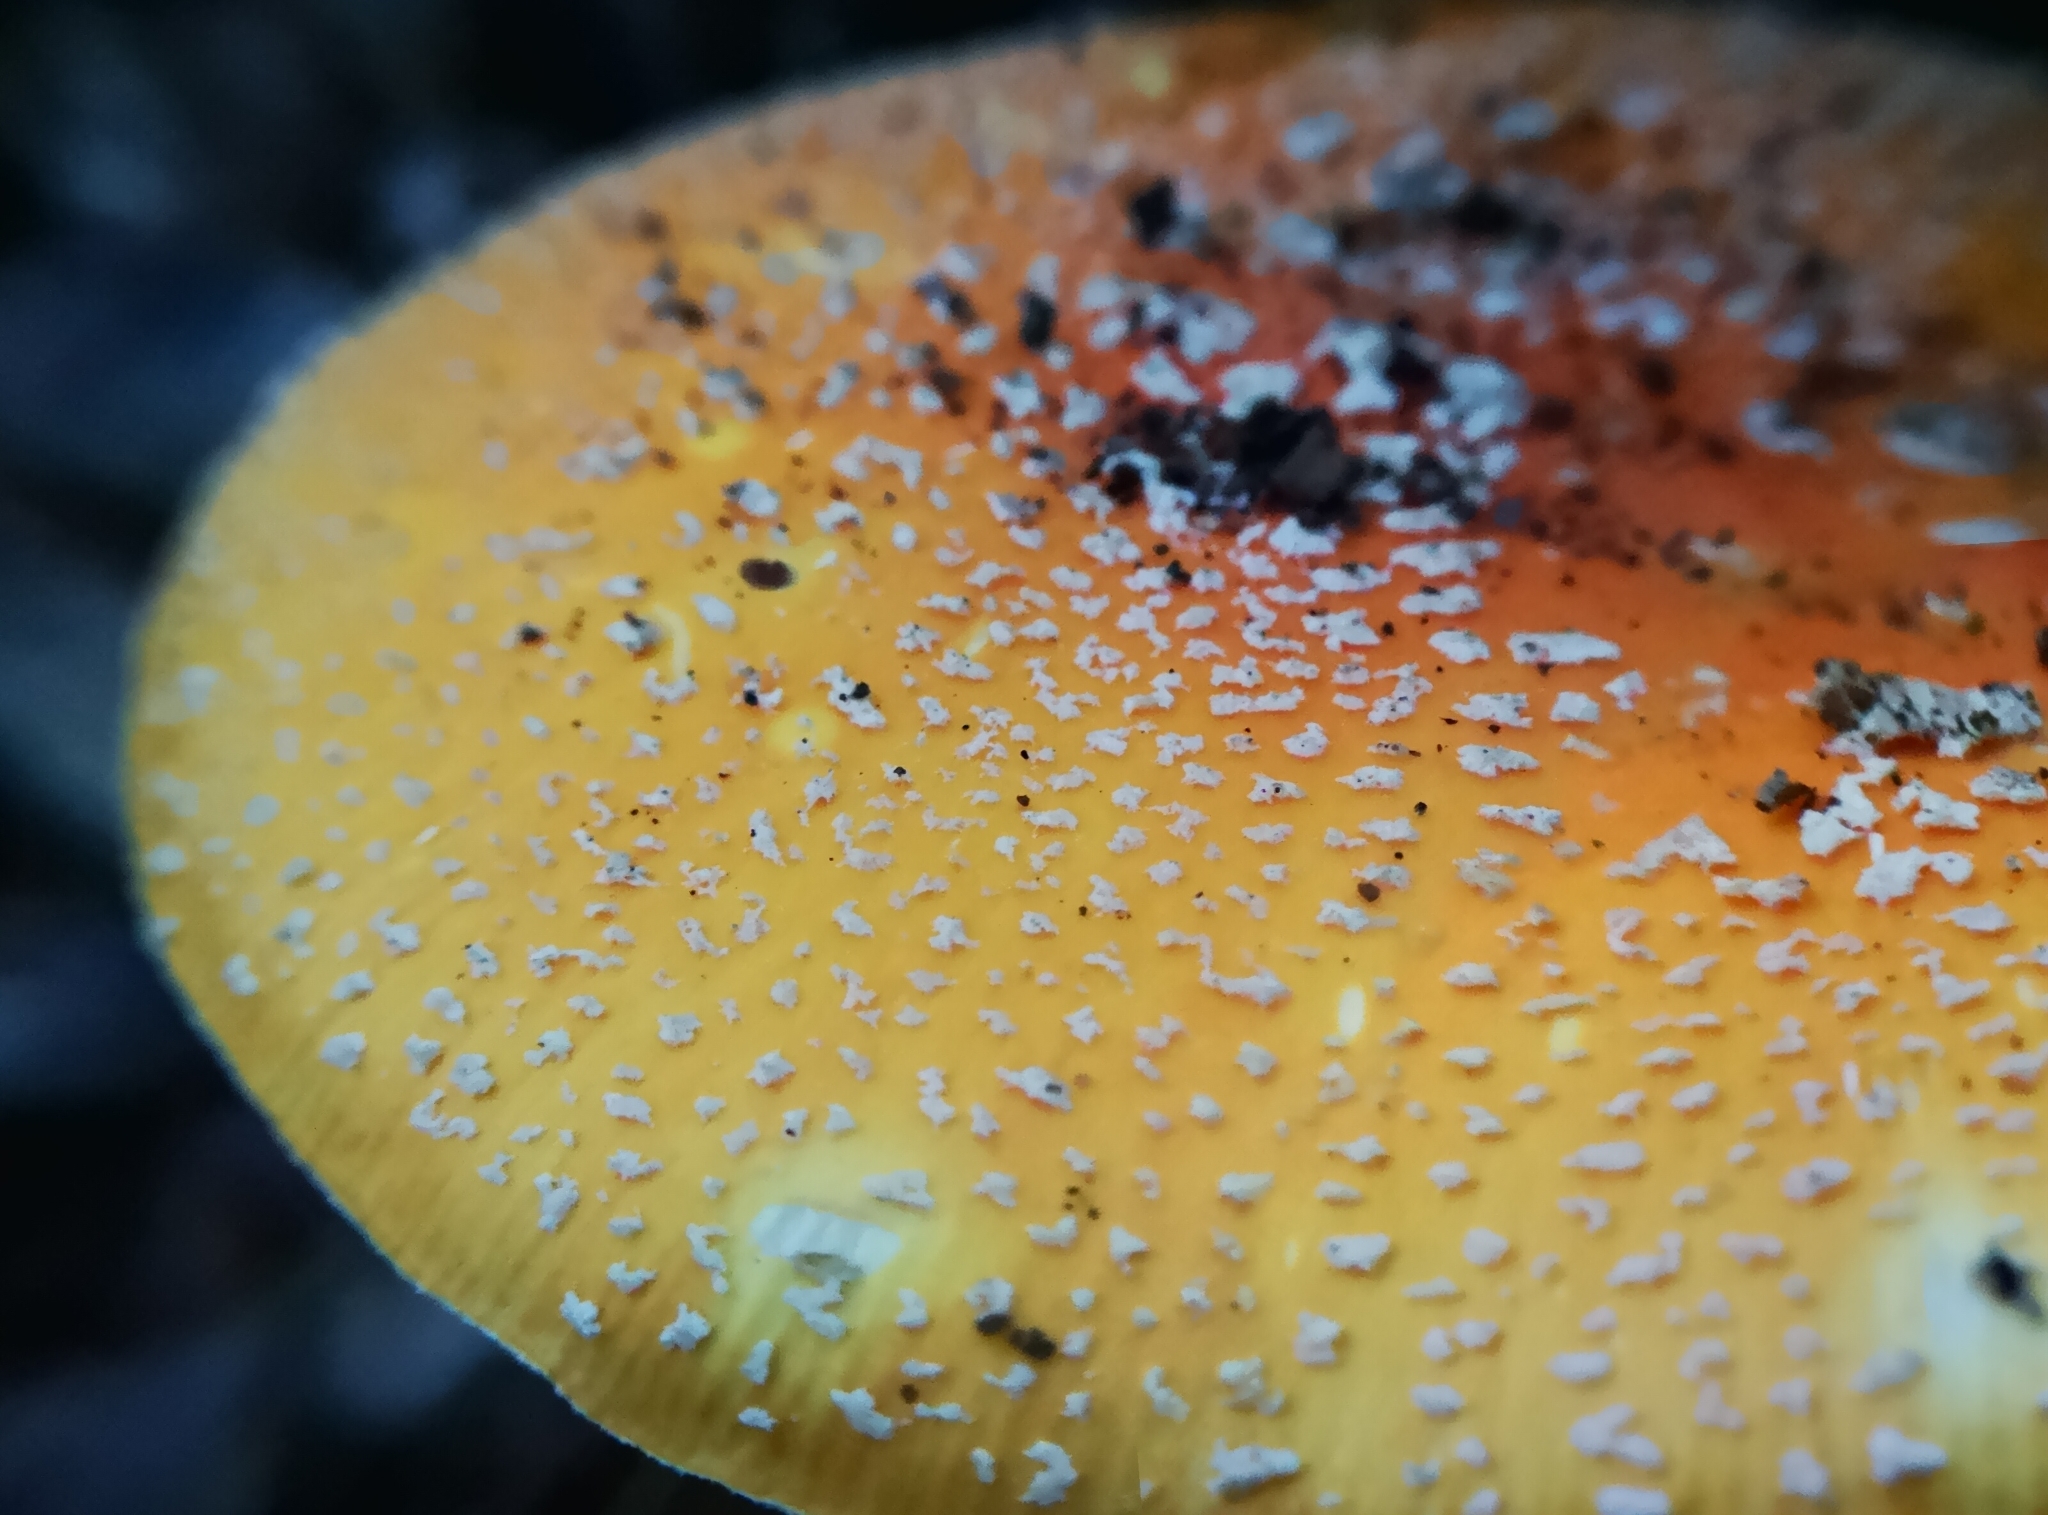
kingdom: Fungi
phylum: Basidiomycota
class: Agaricomycetes
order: Agaricales
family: Amanitaceae
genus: Amanita
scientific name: Amanita muscaria
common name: Fly agaric
